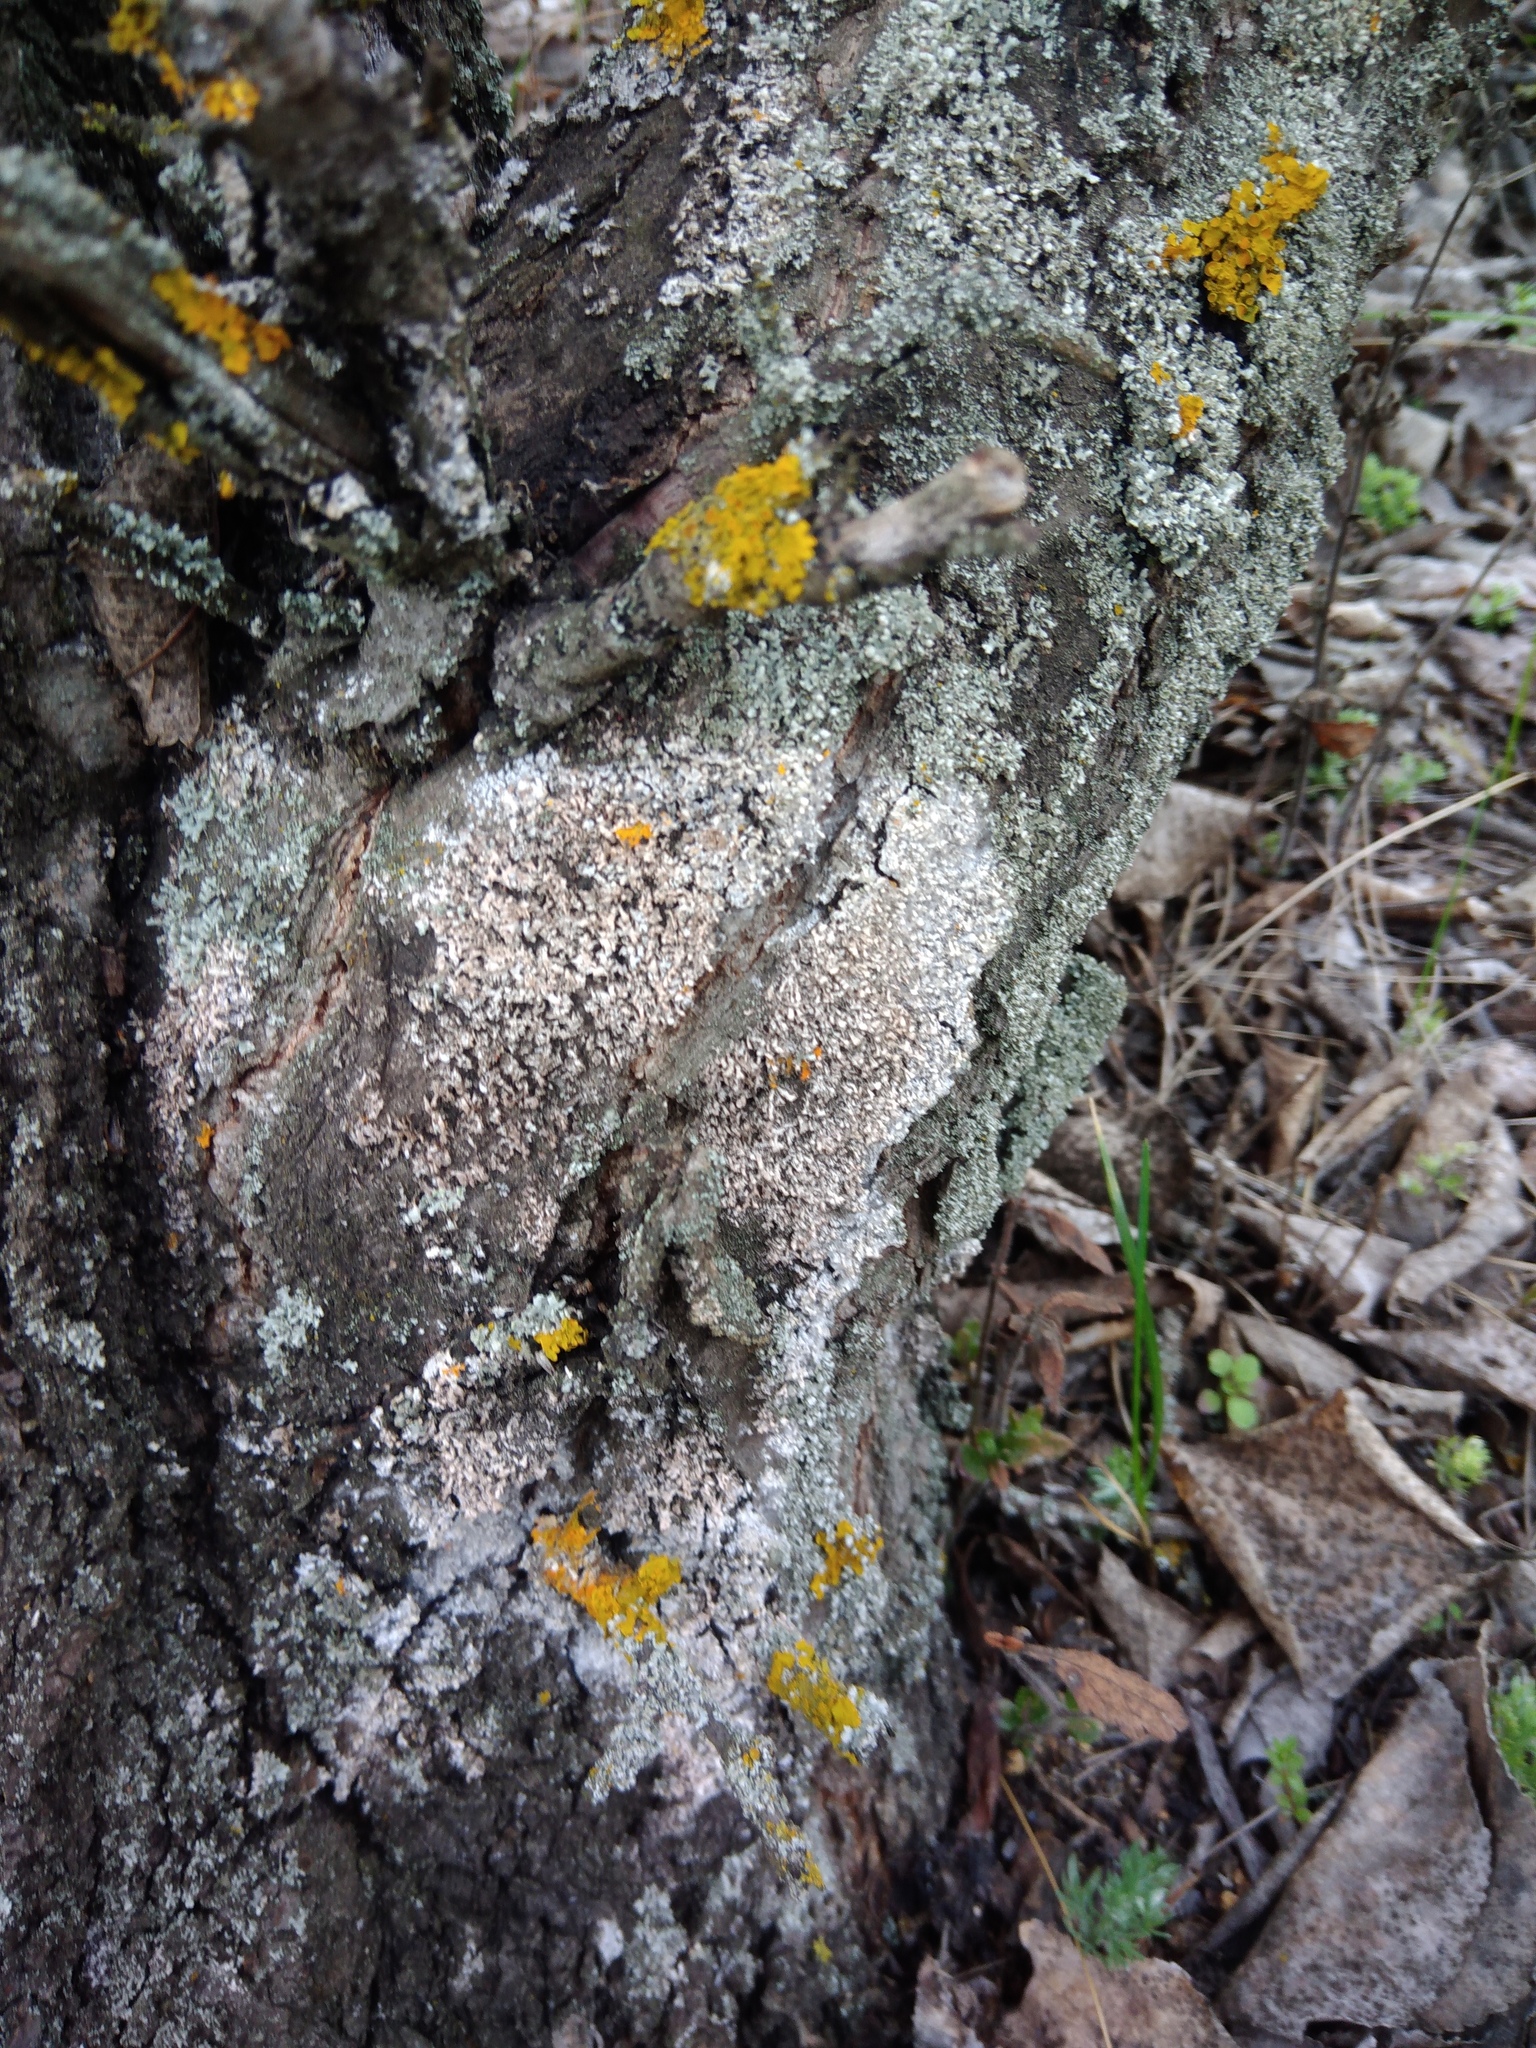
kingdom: Fungi
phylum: Basidiomycota
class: Agaricomycetes
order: Atheliales
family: Atheliaceae
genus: Athelia
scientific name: Athelia arachnoidea
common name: Candelabra duster
